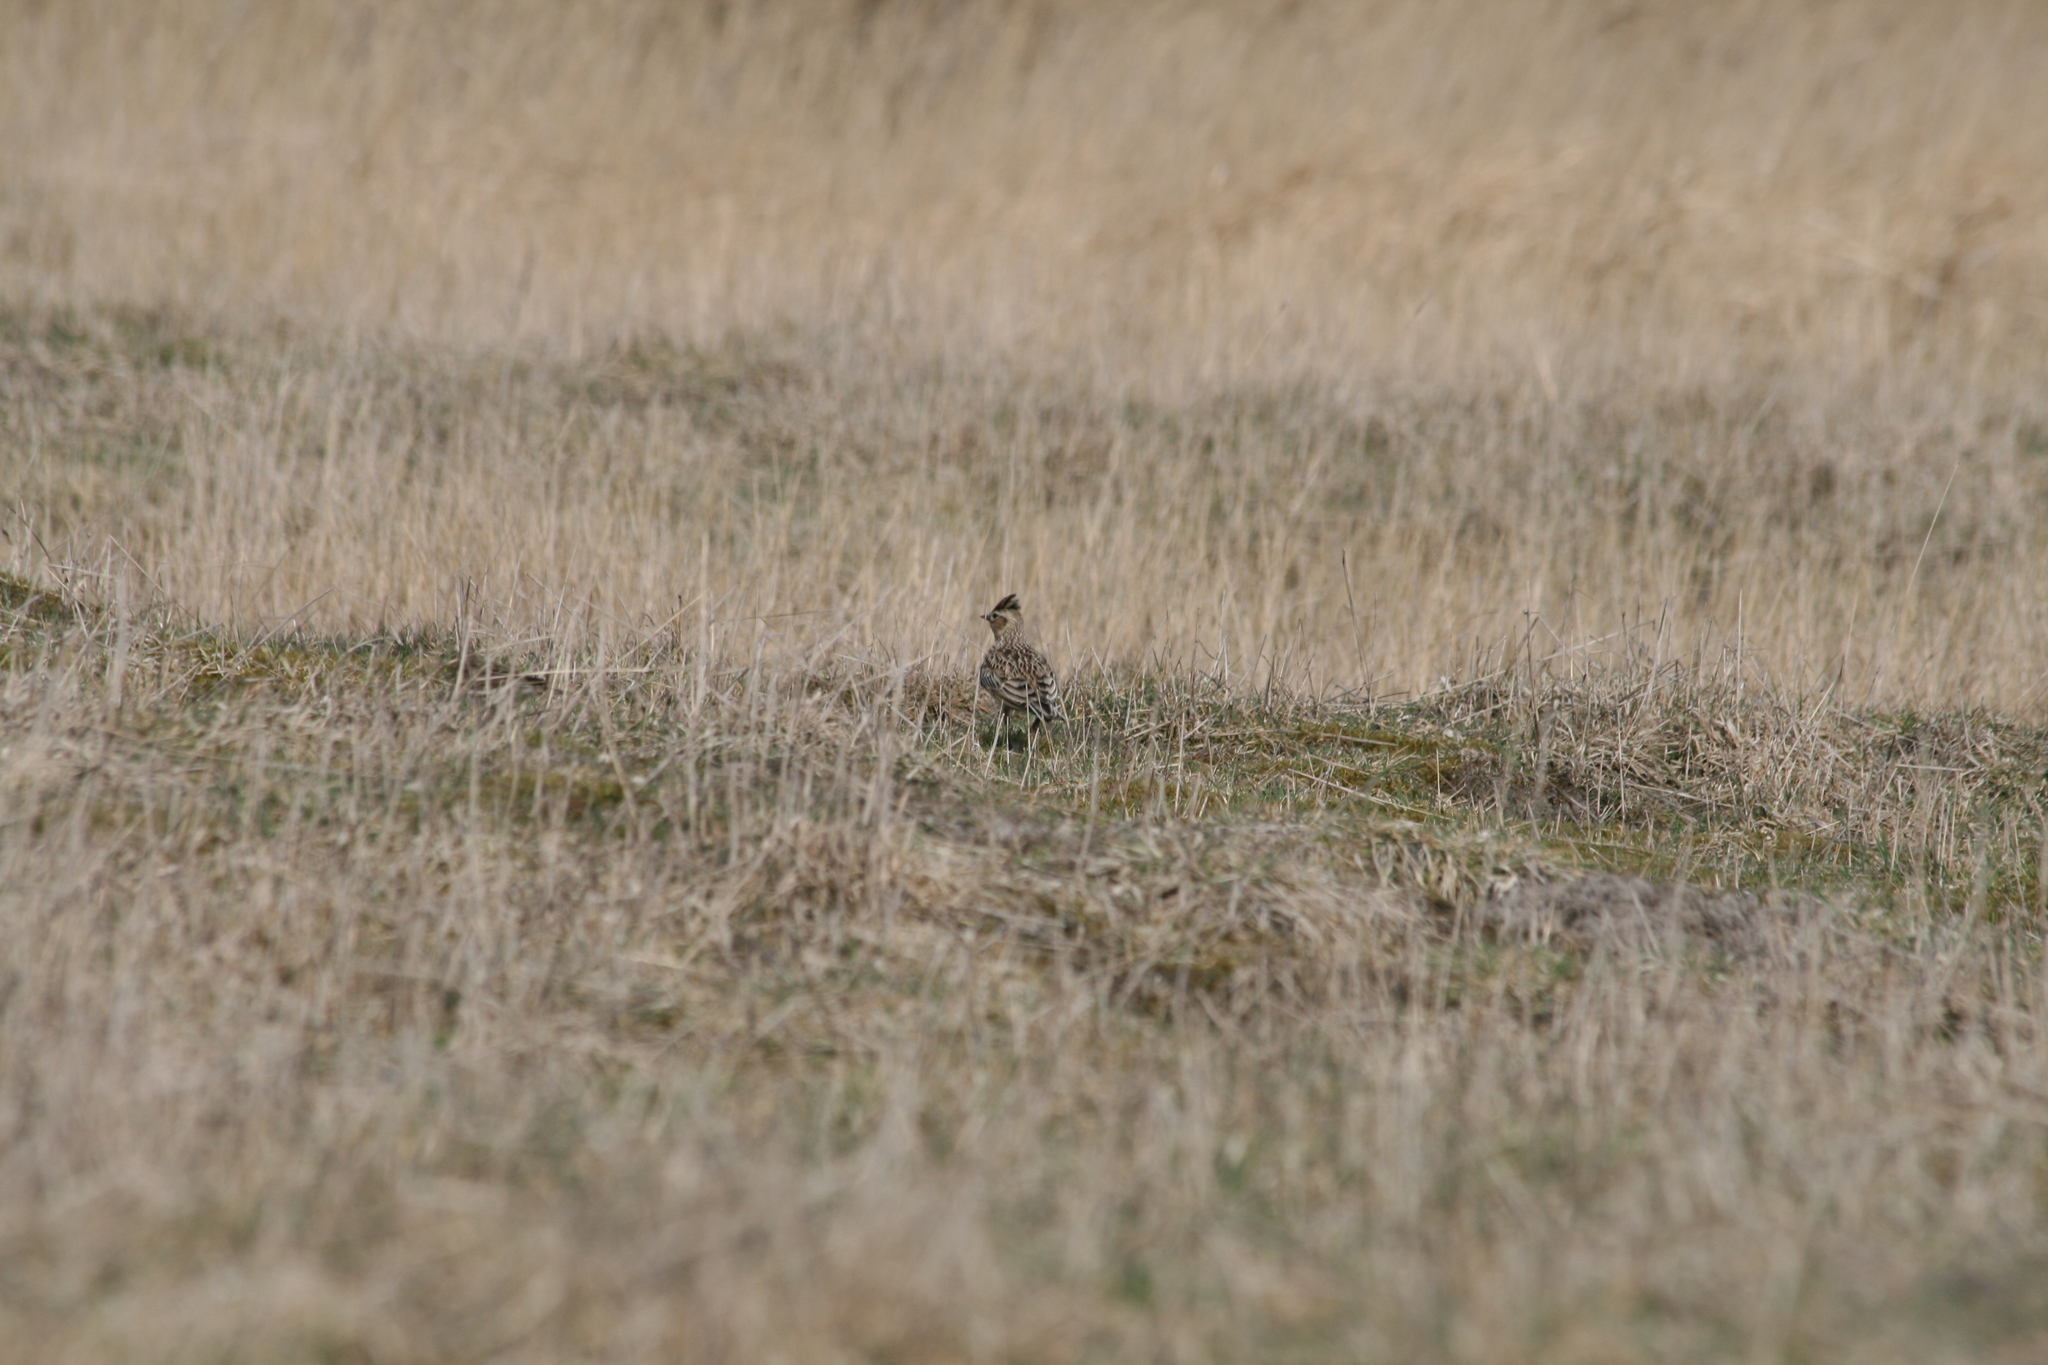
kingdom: Animalia
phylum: Chordata
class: Aves
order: Passeriformes
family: Alaudidae
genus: Alauda
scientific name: Alauda arvensis
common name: Eurasian skylark
